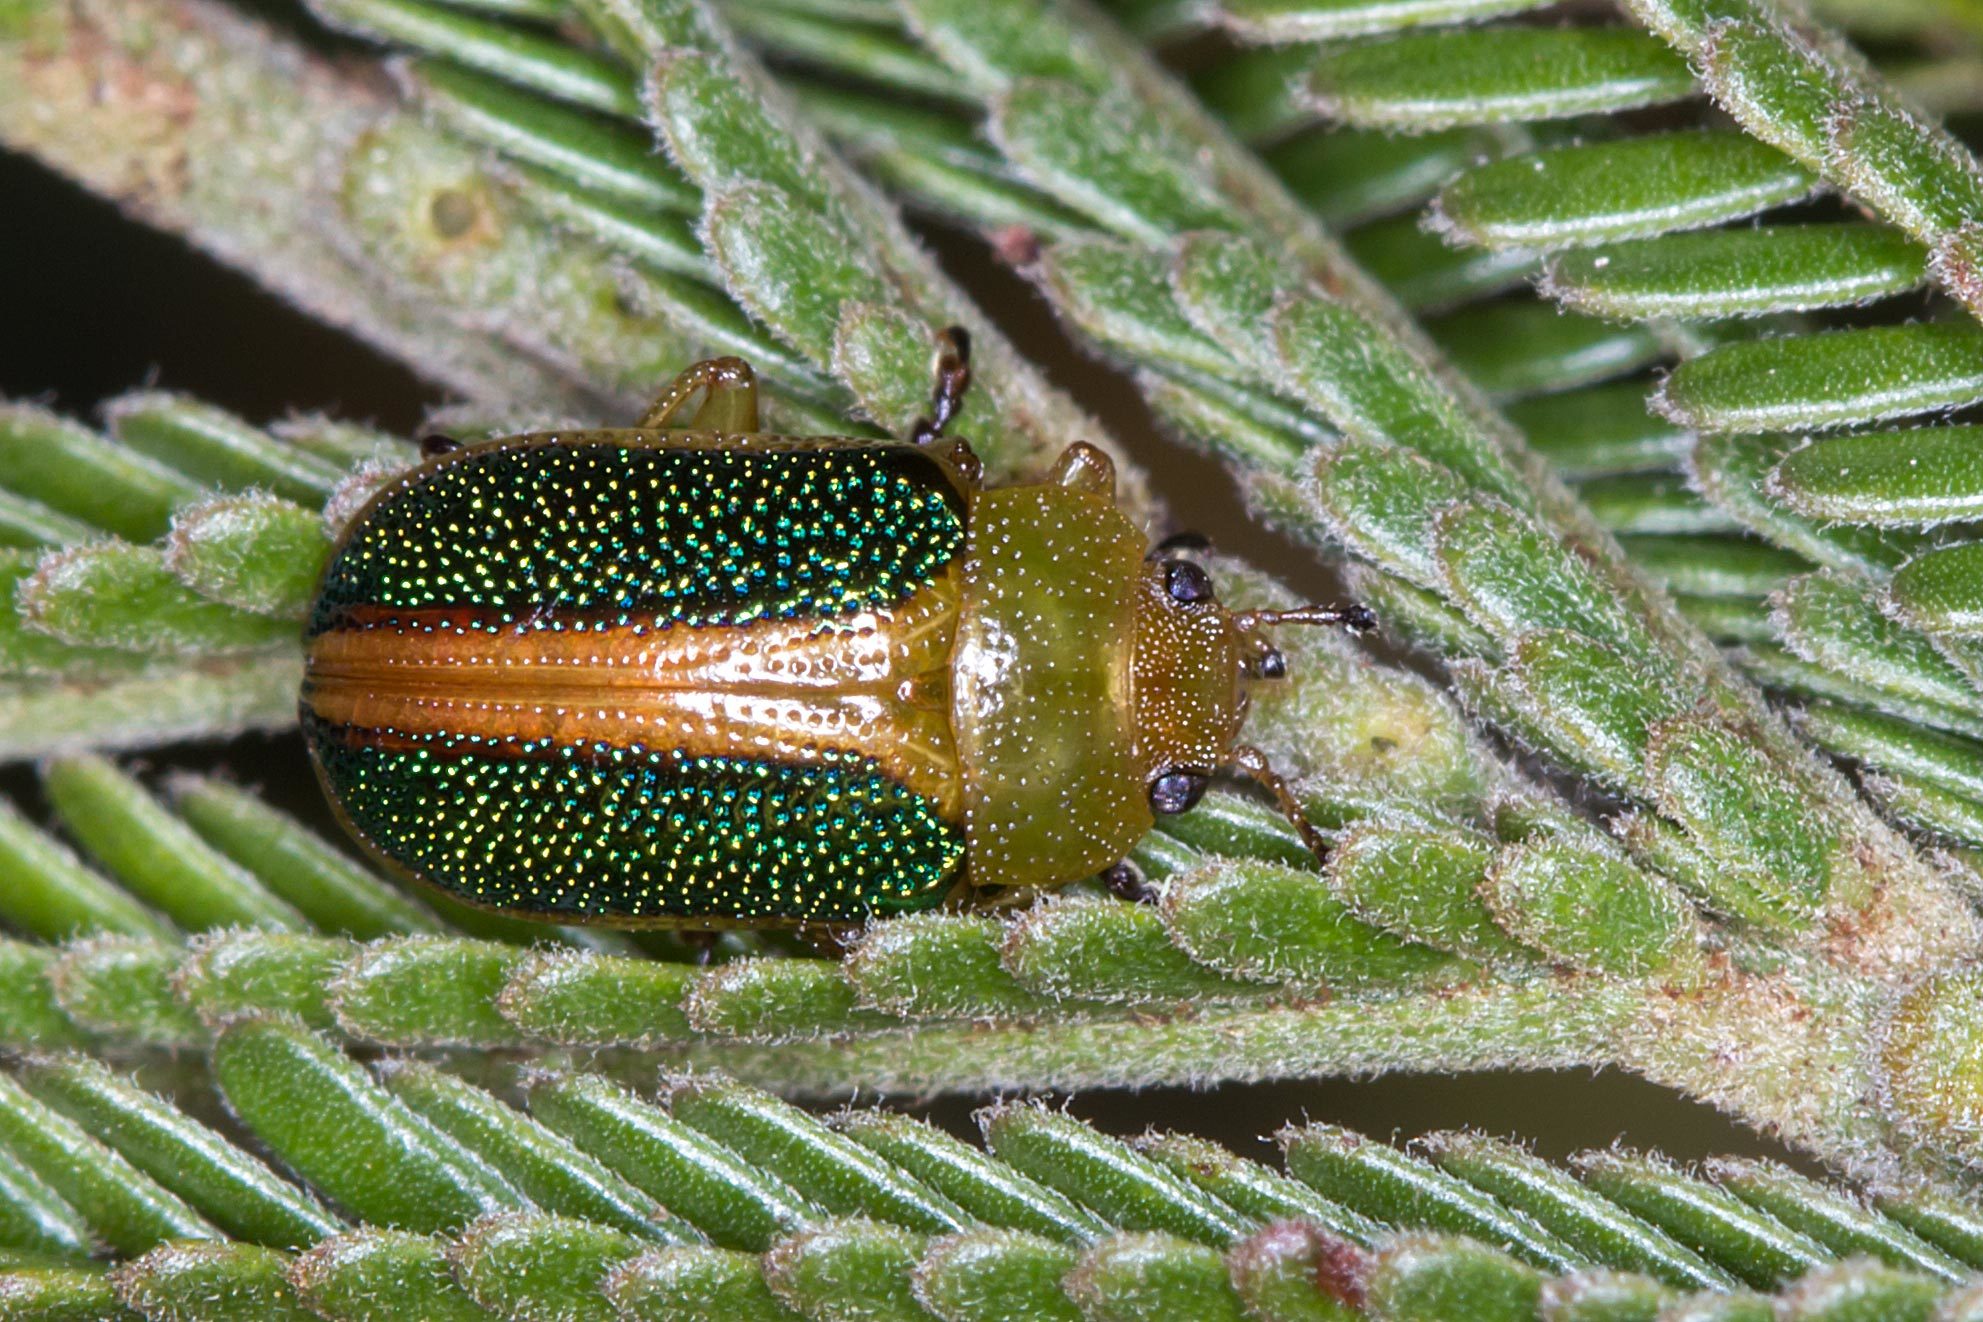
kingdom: Animalia
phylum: Arthropoda
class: Insecta
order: Coleoptera
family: Chrysomelidae
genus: Calomela
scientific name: Calomela
